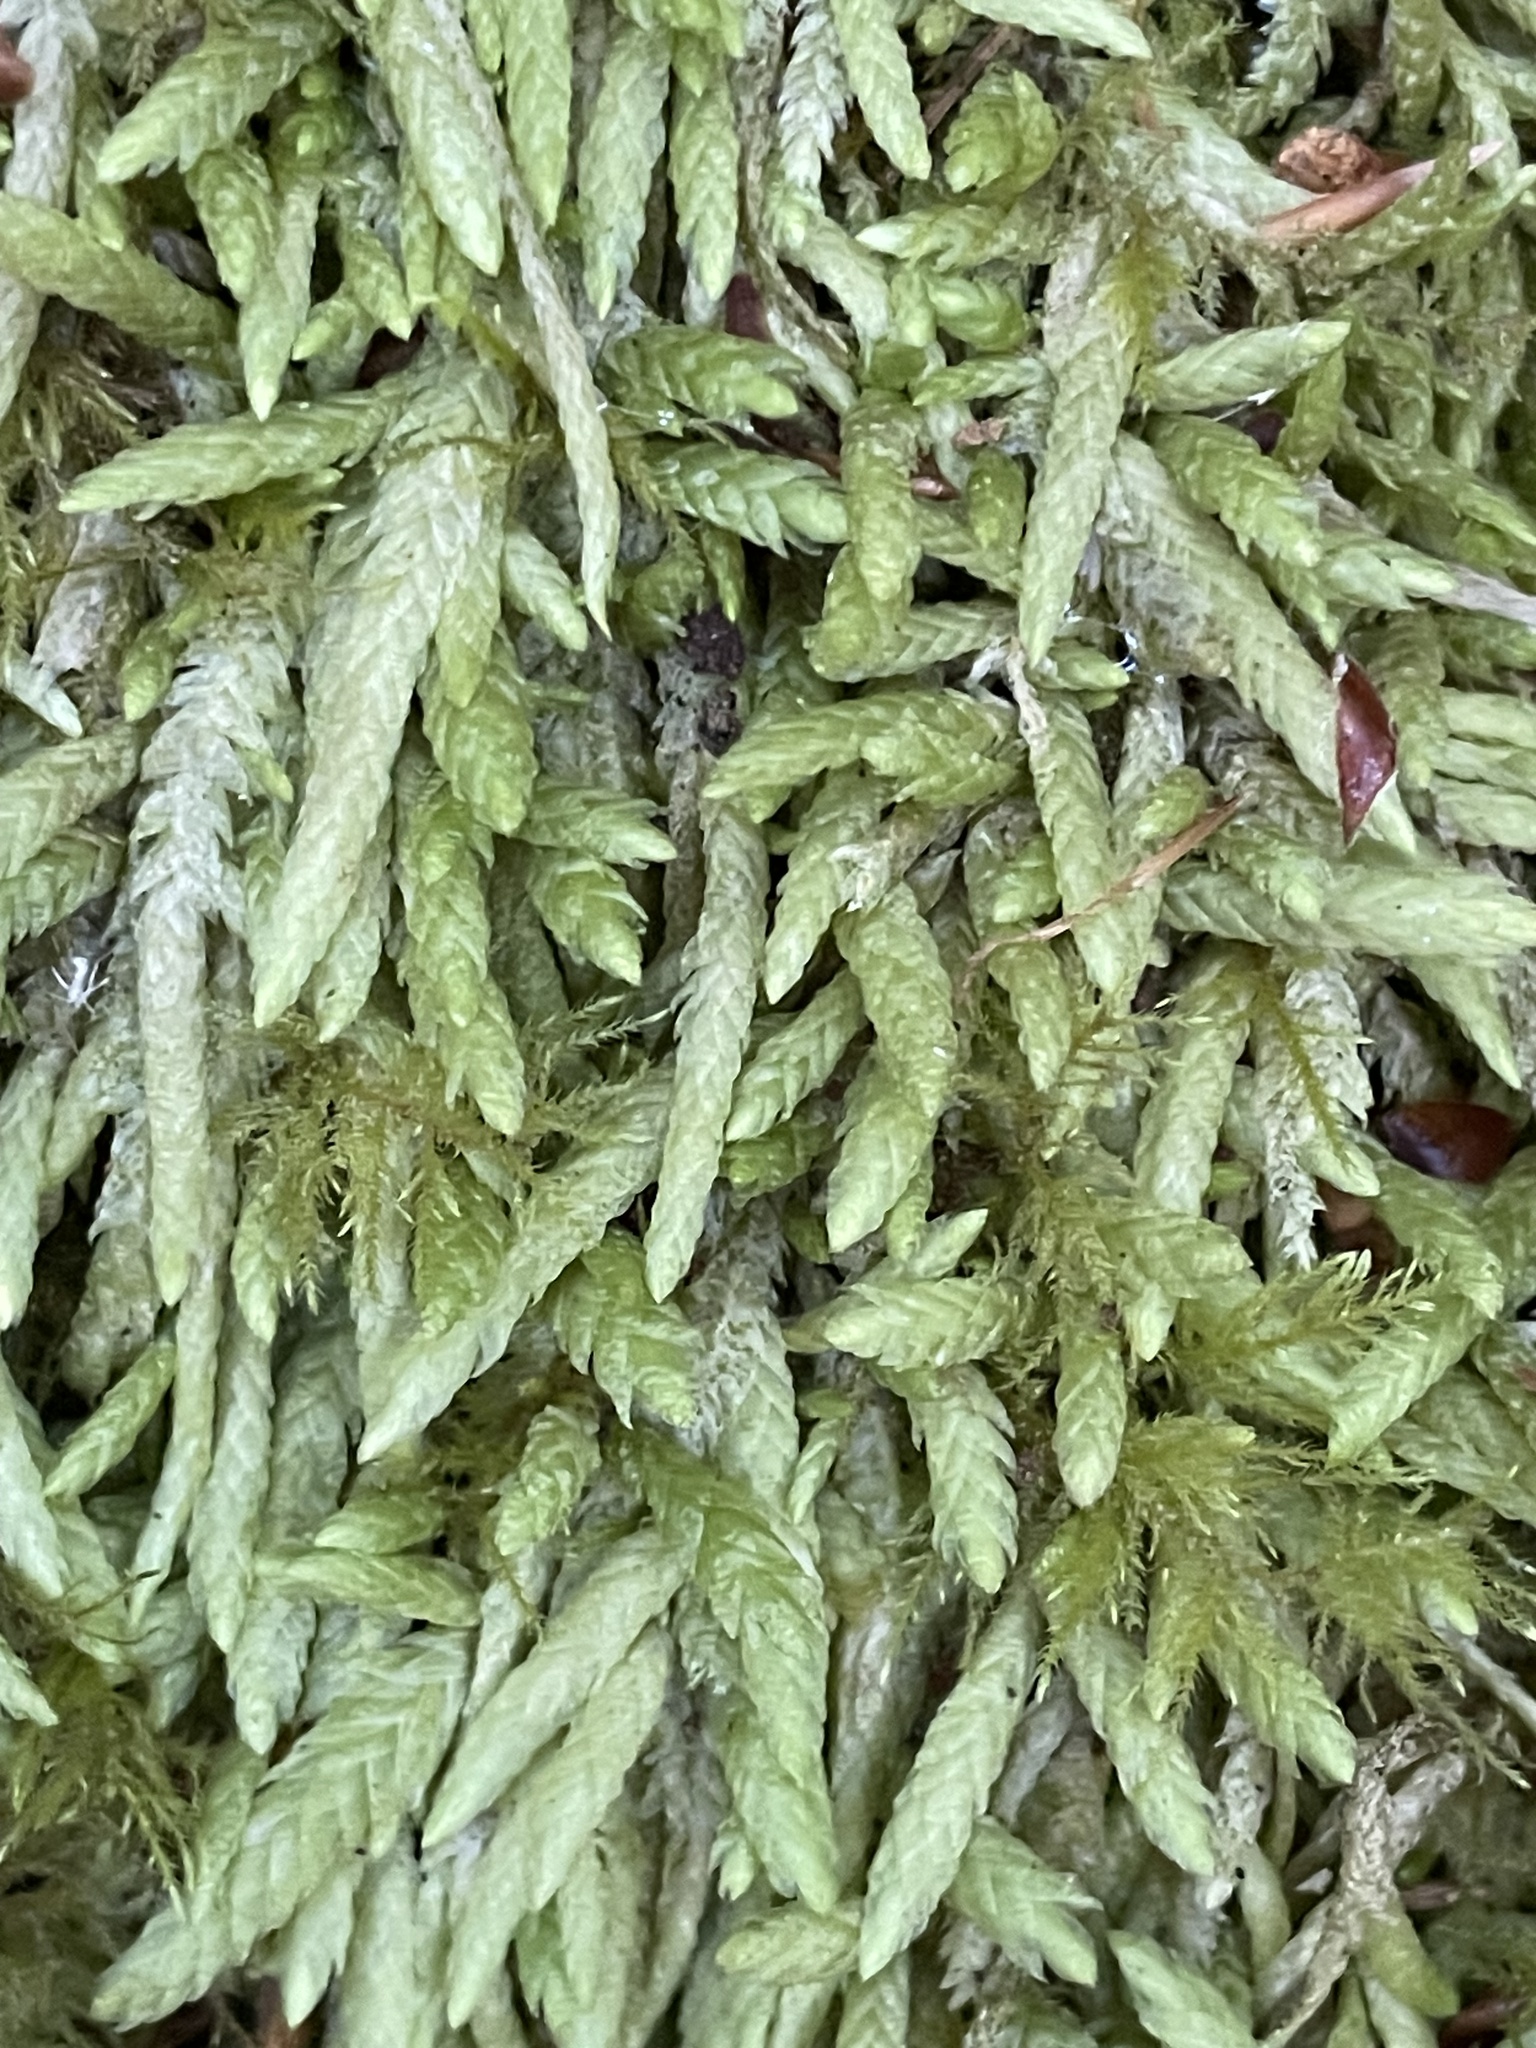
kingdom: Plantae
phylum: Bryophyta
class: Bryopsida
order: Hypnales
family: Plagiotheciaceae
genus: Plagiothecium
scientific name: Plagiothecium undulatum
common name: Waved silk-moss
